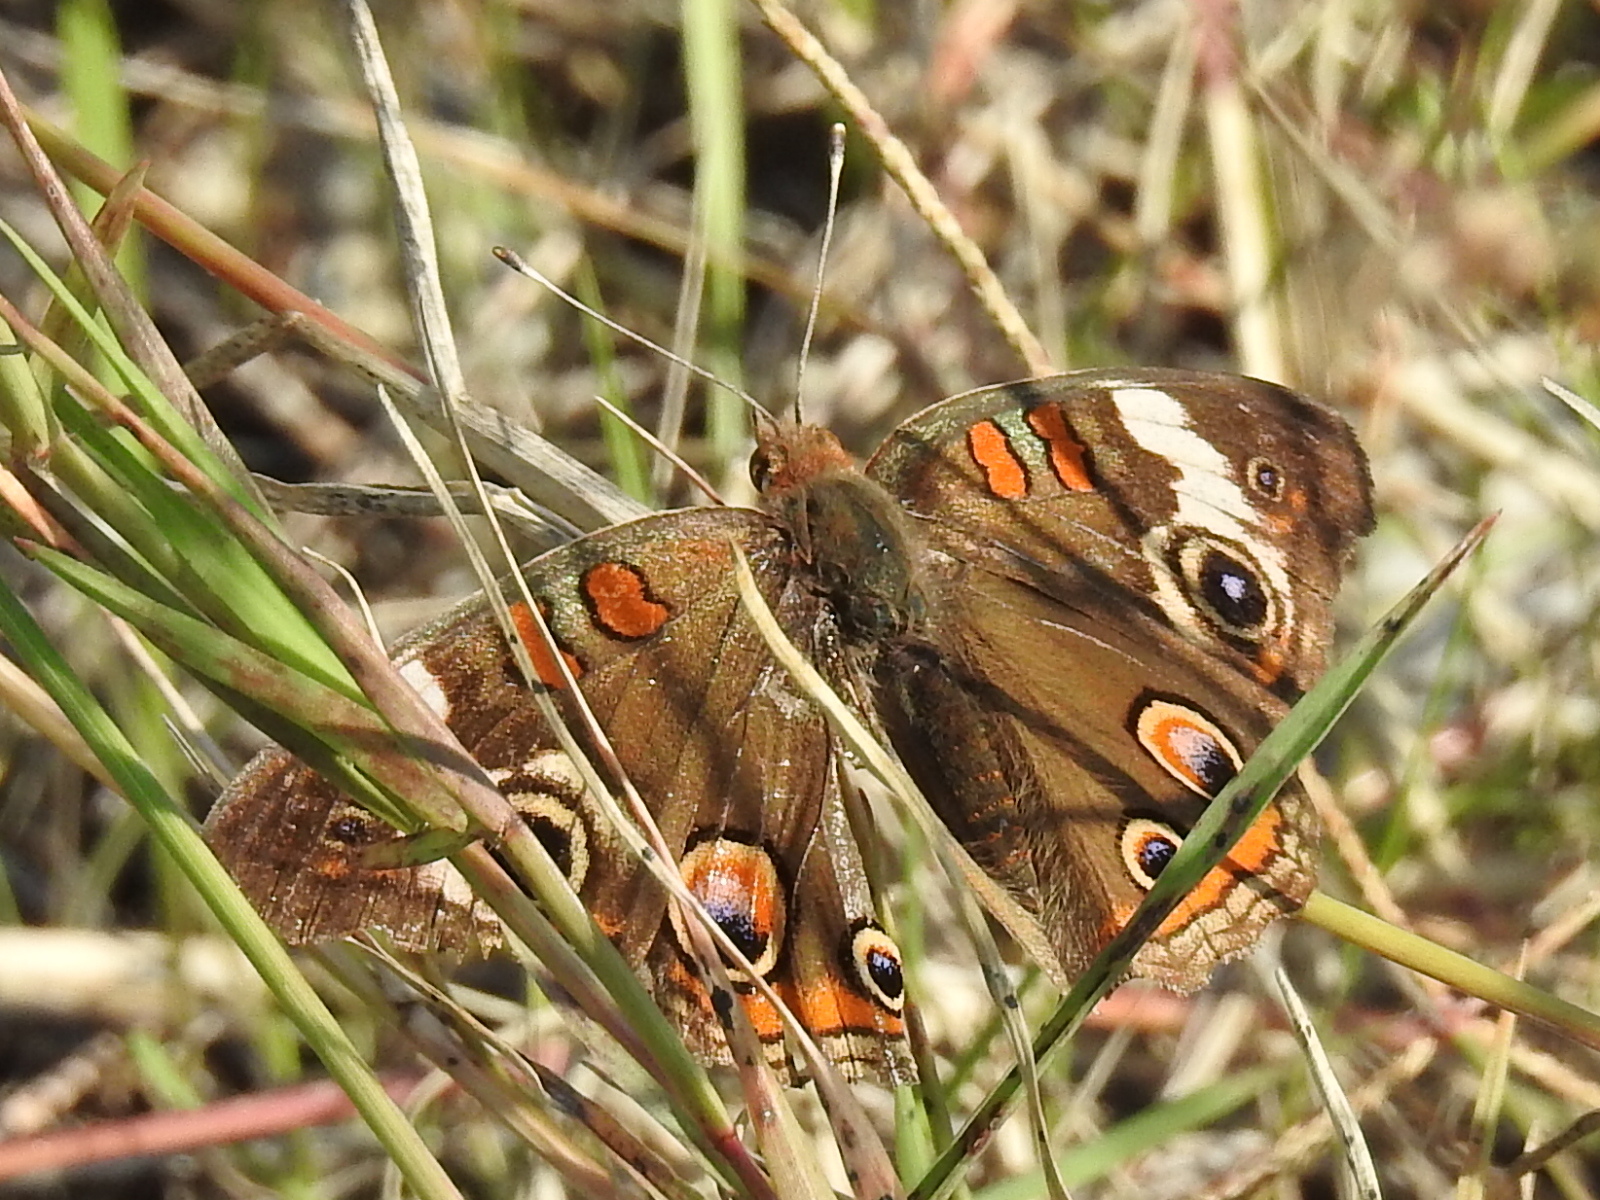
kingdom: Animalia
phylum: Arthropoda
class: Insecta
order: Lepidoptera
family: Nymphalidae
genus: Junonia
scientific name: Junonia coenia
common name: Common buckeye
